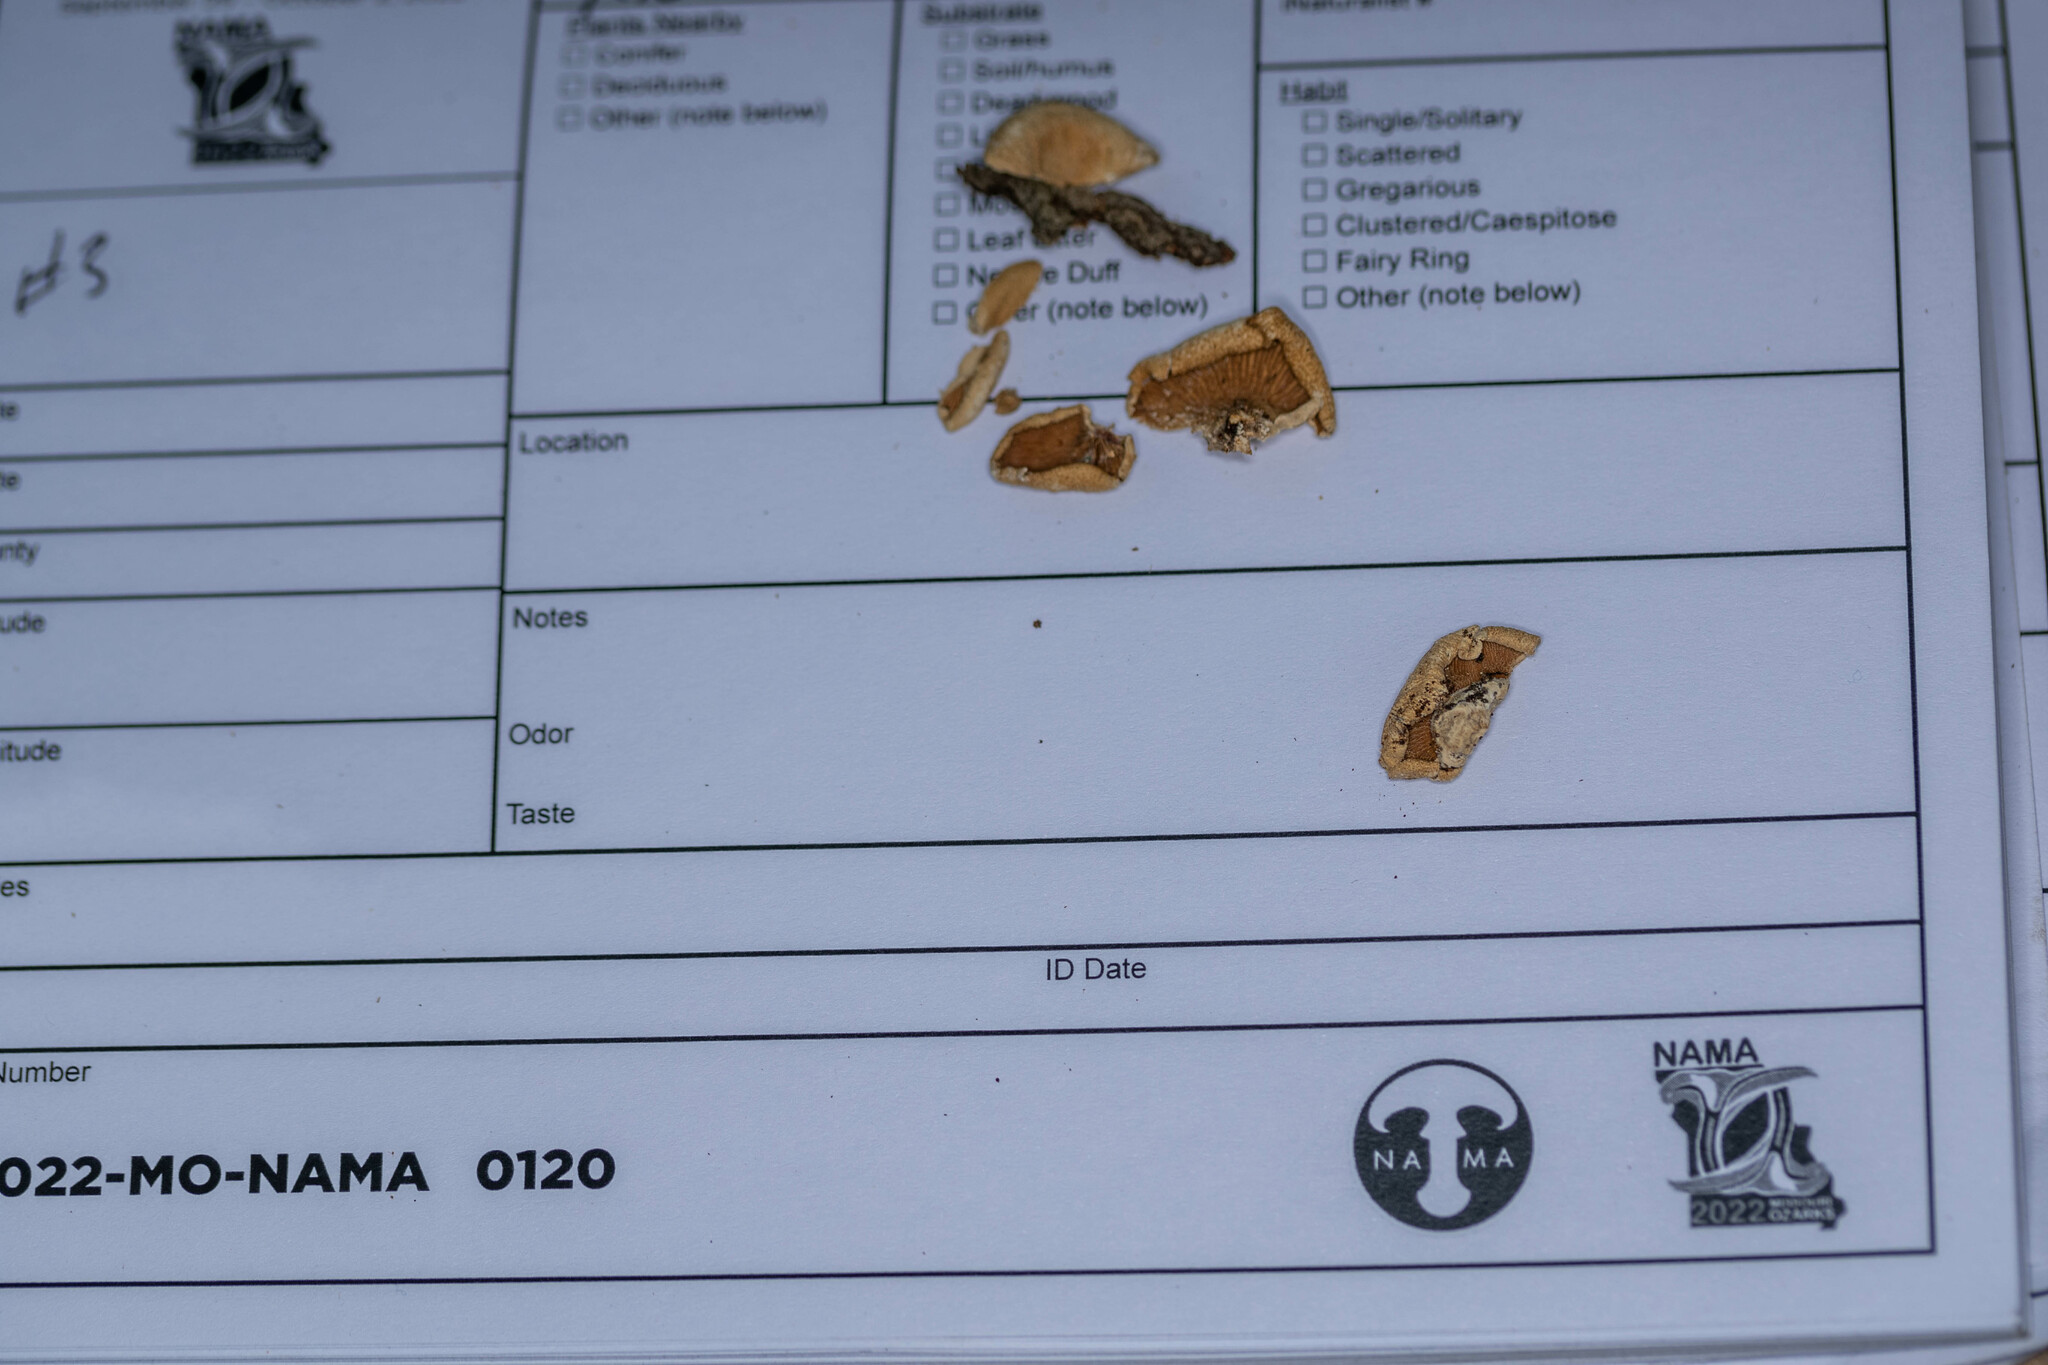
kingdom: Fungi
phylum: Basidiomycota
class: Agaricomycetes
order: Agaricales
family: Mycenaceae
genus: Panellus
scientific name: Panellus stipticus
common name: Bitter oysterling
